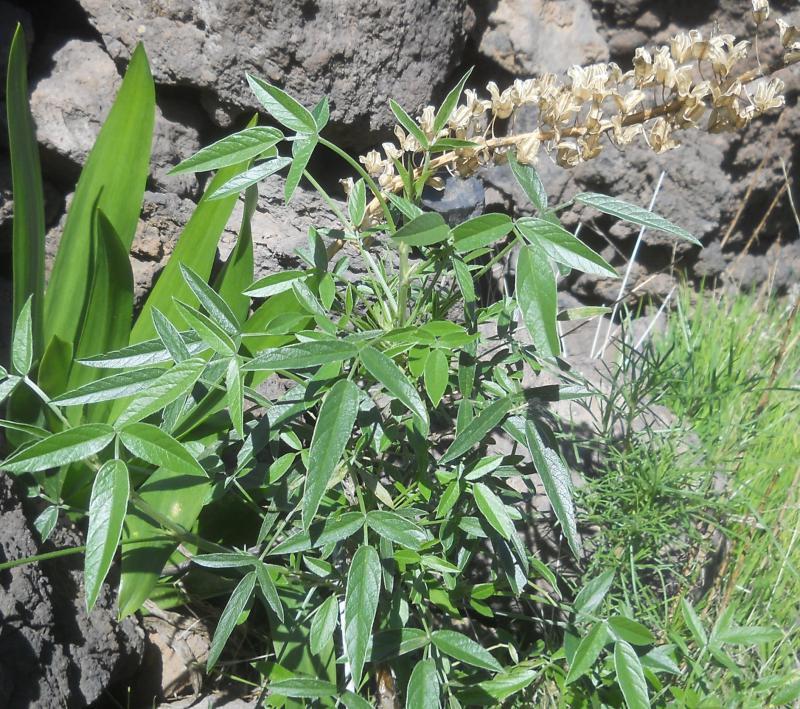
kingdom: Plantae
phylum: Tracheophyta
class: Magnoliopsida
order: Fabales
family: Fabaceae
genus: Bituminaria
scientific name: Bituminaria bituminosa
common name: Arabian pea
